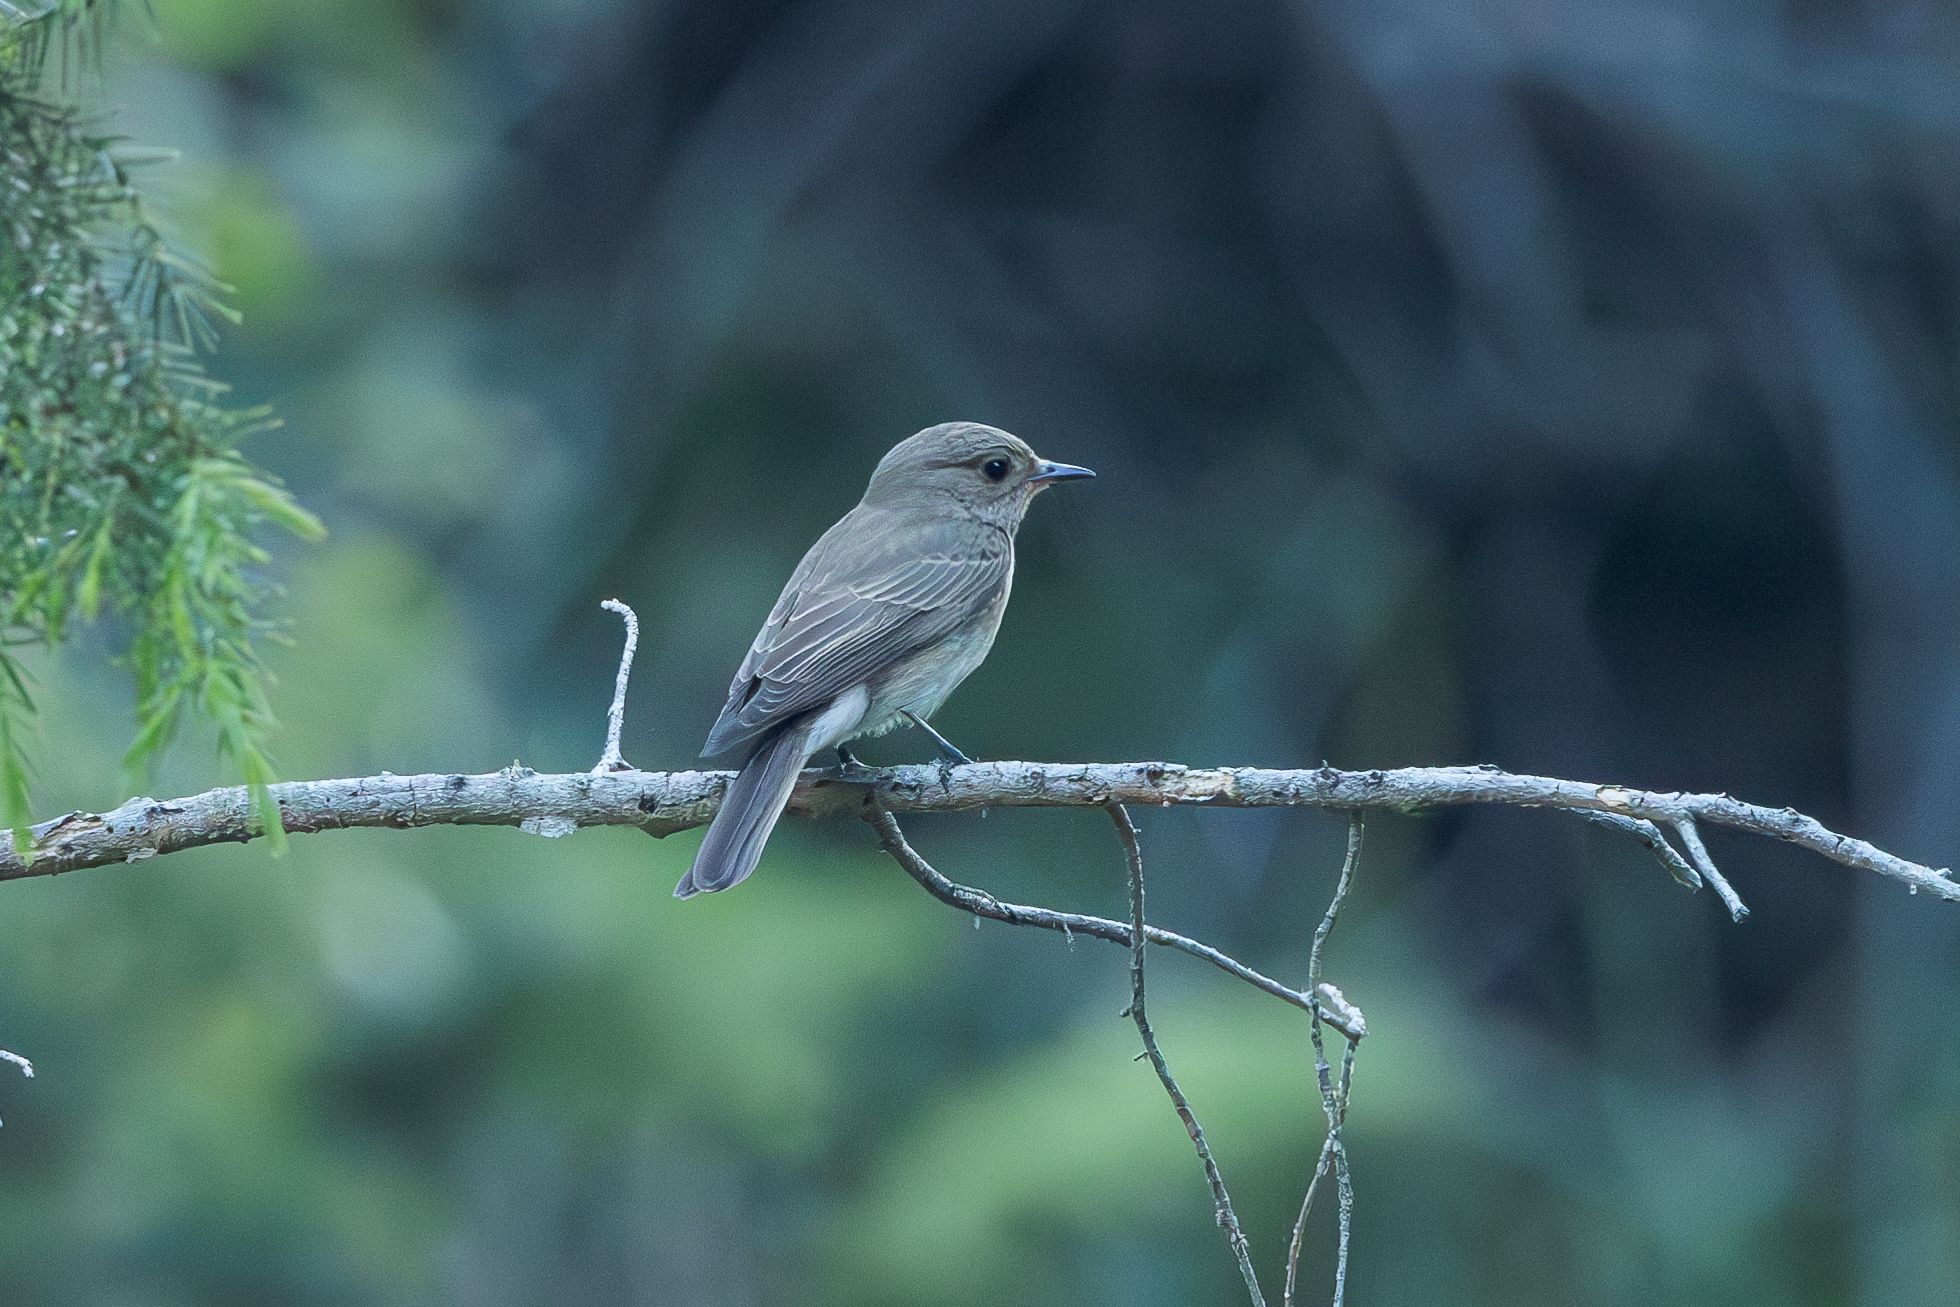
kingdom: Animalia
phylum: Chordata
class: Aves
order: Passeriformes
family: Muscicapidae
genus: Muscicapa
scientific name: Muscicapa striata
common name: Spotted flycatcher
